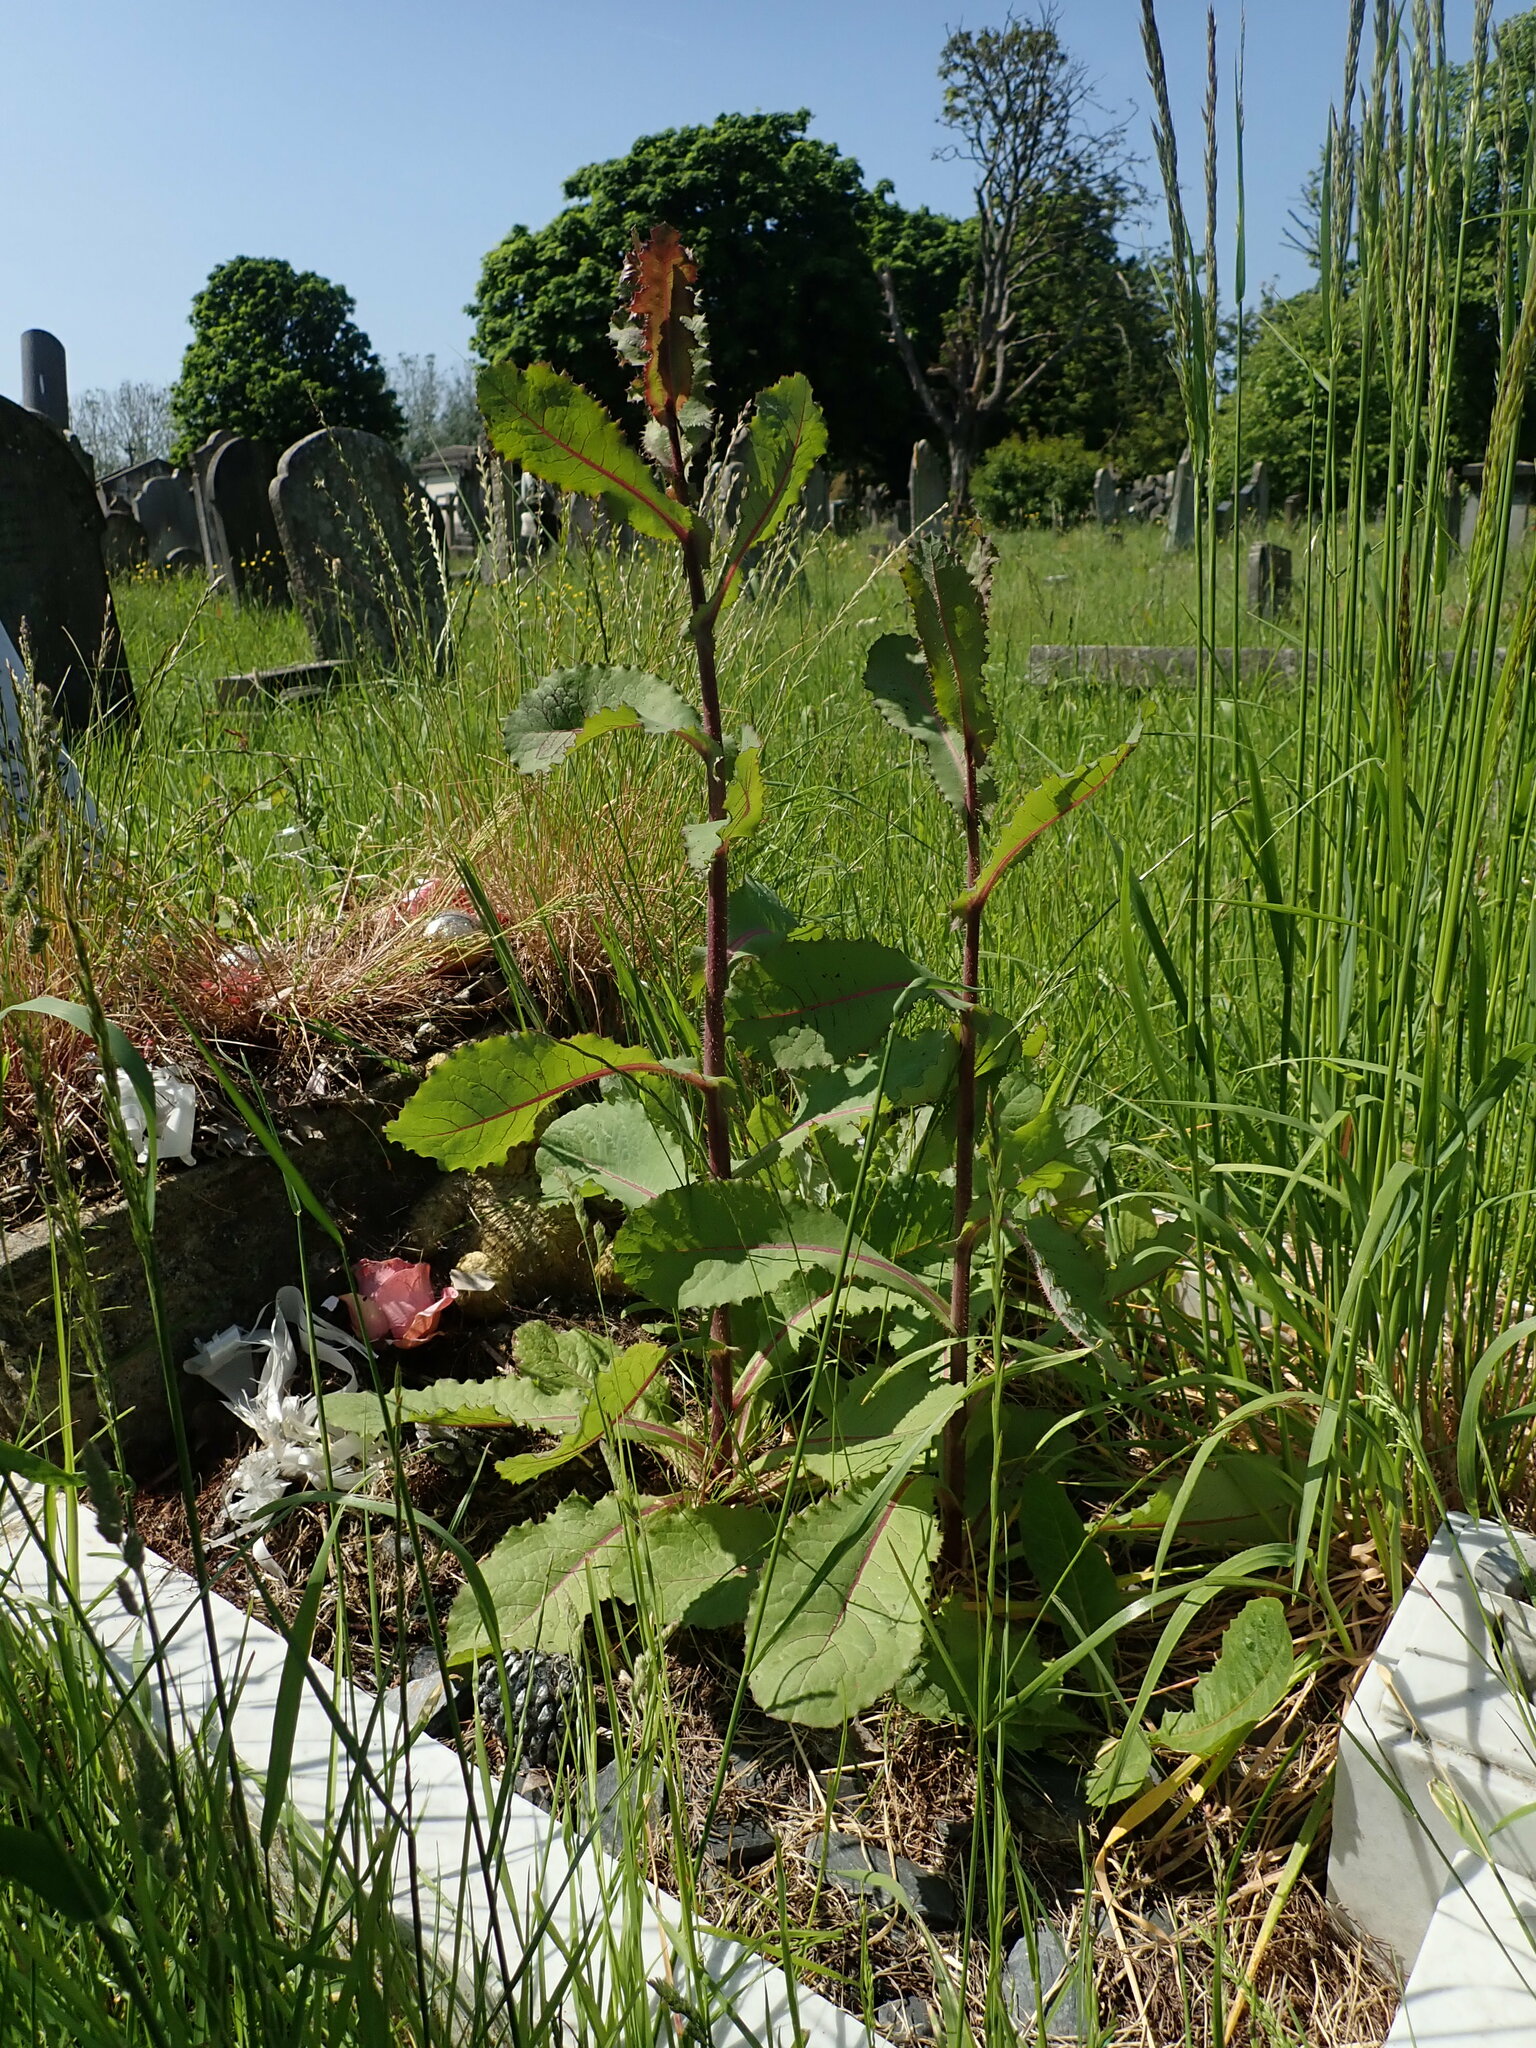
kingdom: Plantae
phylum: Tracheophyta
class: Magnoliopsida
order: Asterales
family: Asteraceae
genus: Lactuca
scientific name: Lactuca virosa
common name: Great lettuce
